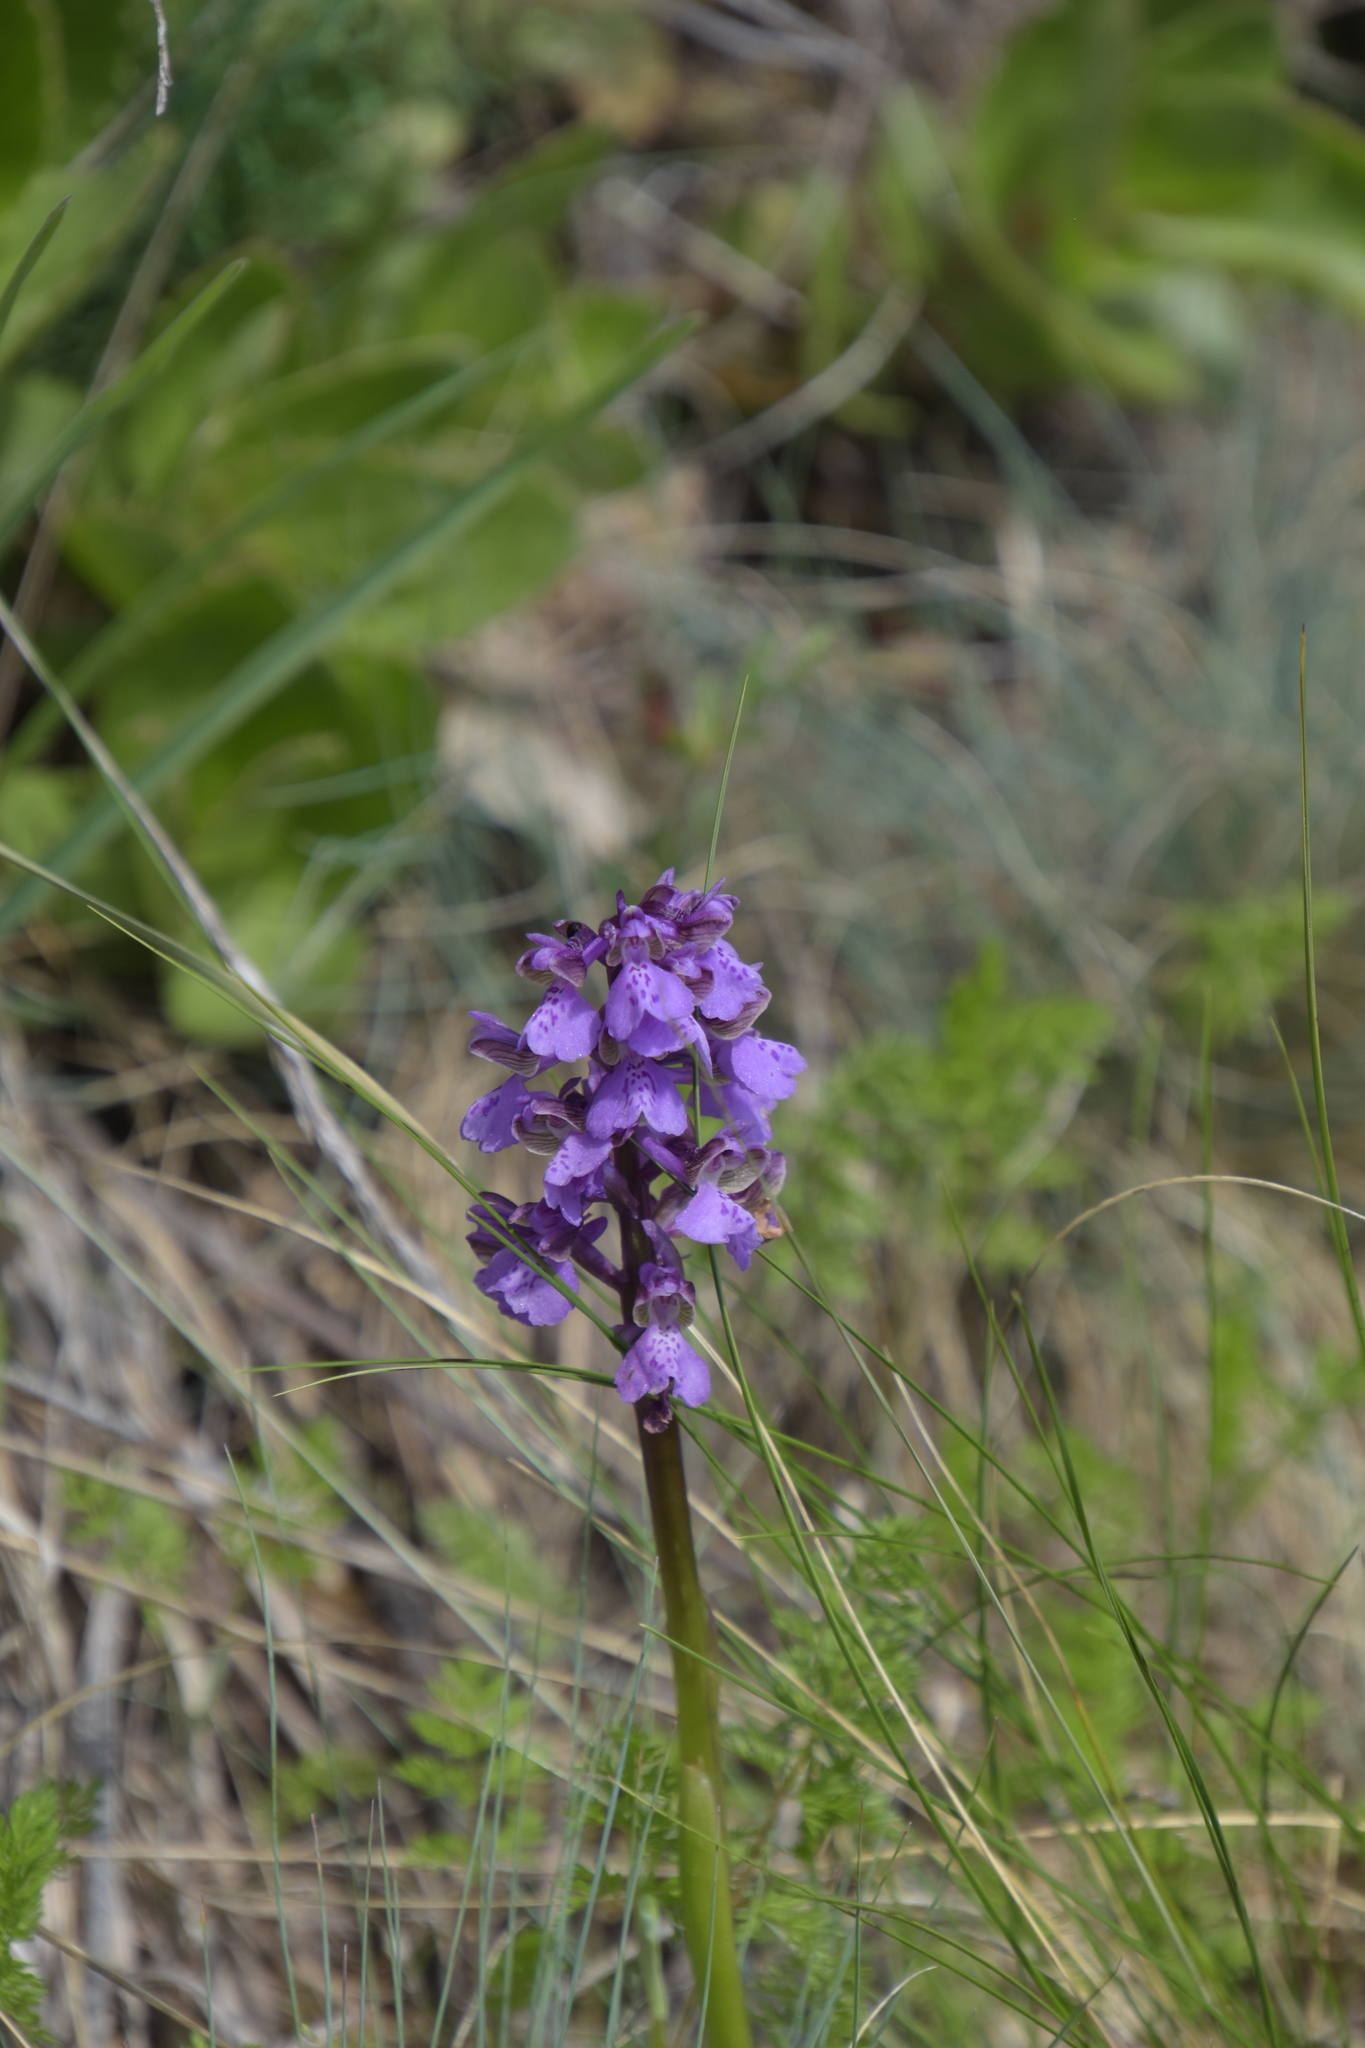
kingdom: Plantae
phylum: Tracheophyta
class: Liliopsida
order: Asparagales
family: Orchidaceae
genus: Anacamptis
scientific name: Anacamptis morio
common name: Green-winged orchid
